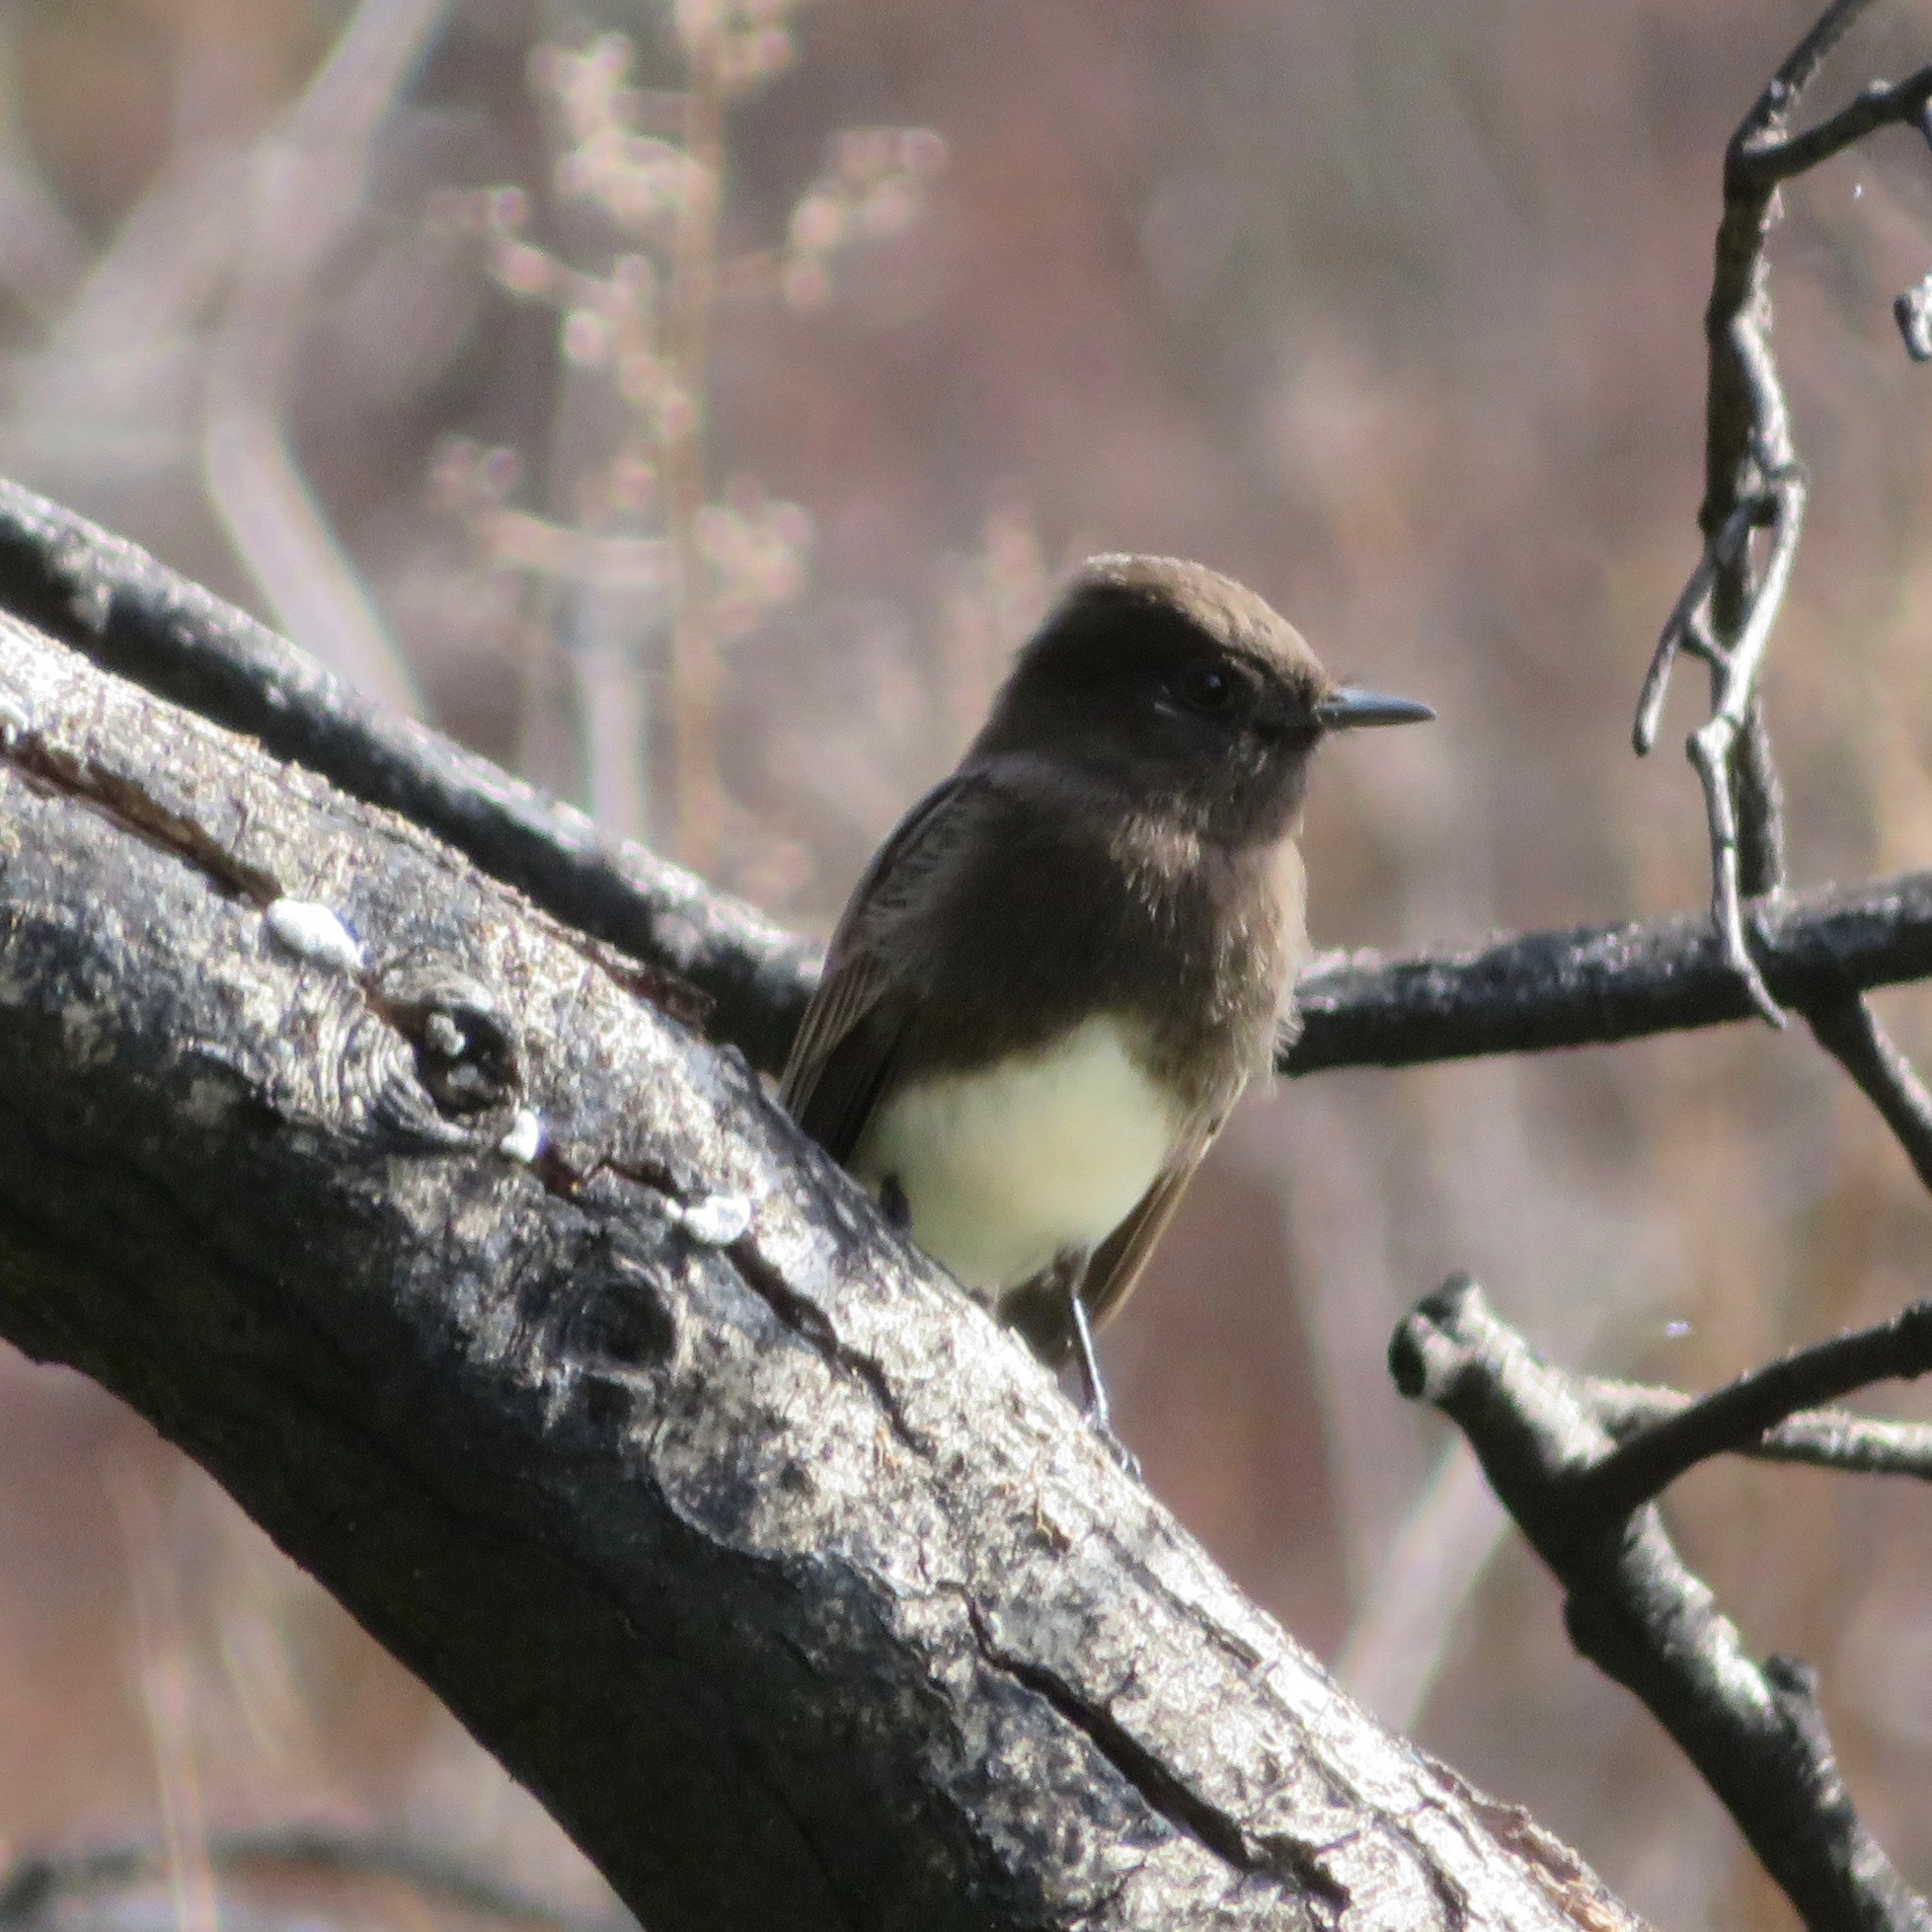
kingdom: Animalia
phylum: Chordata
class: Aves
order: Passeriformes
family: Tyrannidae
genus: Sayornis
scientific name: Sayornis nigricans
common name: Black phoebe
